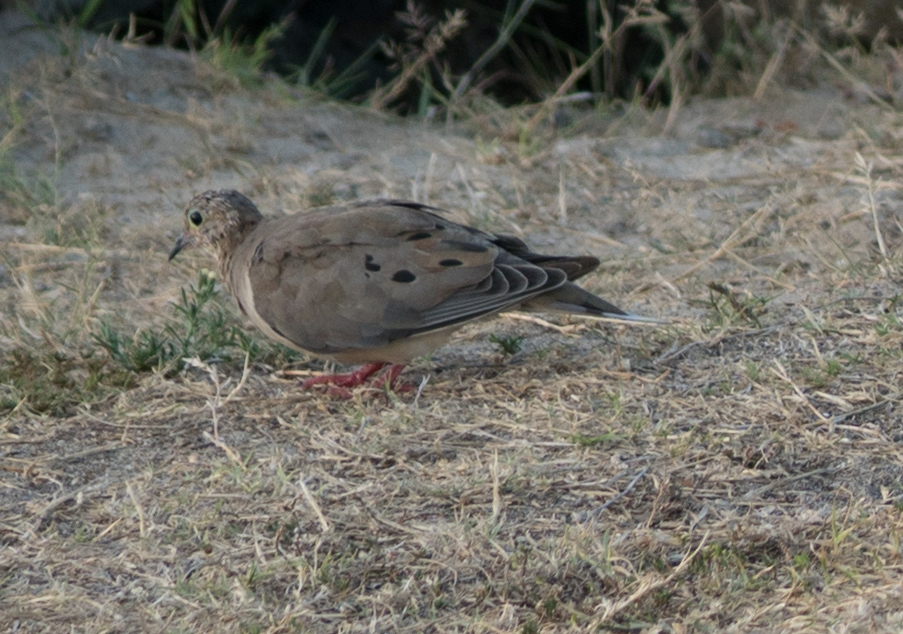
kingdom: Animalia
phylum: Chordata
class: Aves
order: Columbiformes
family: Columbidae
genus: Zenaida
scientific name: Zenaida macroura
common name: Mourning dove
